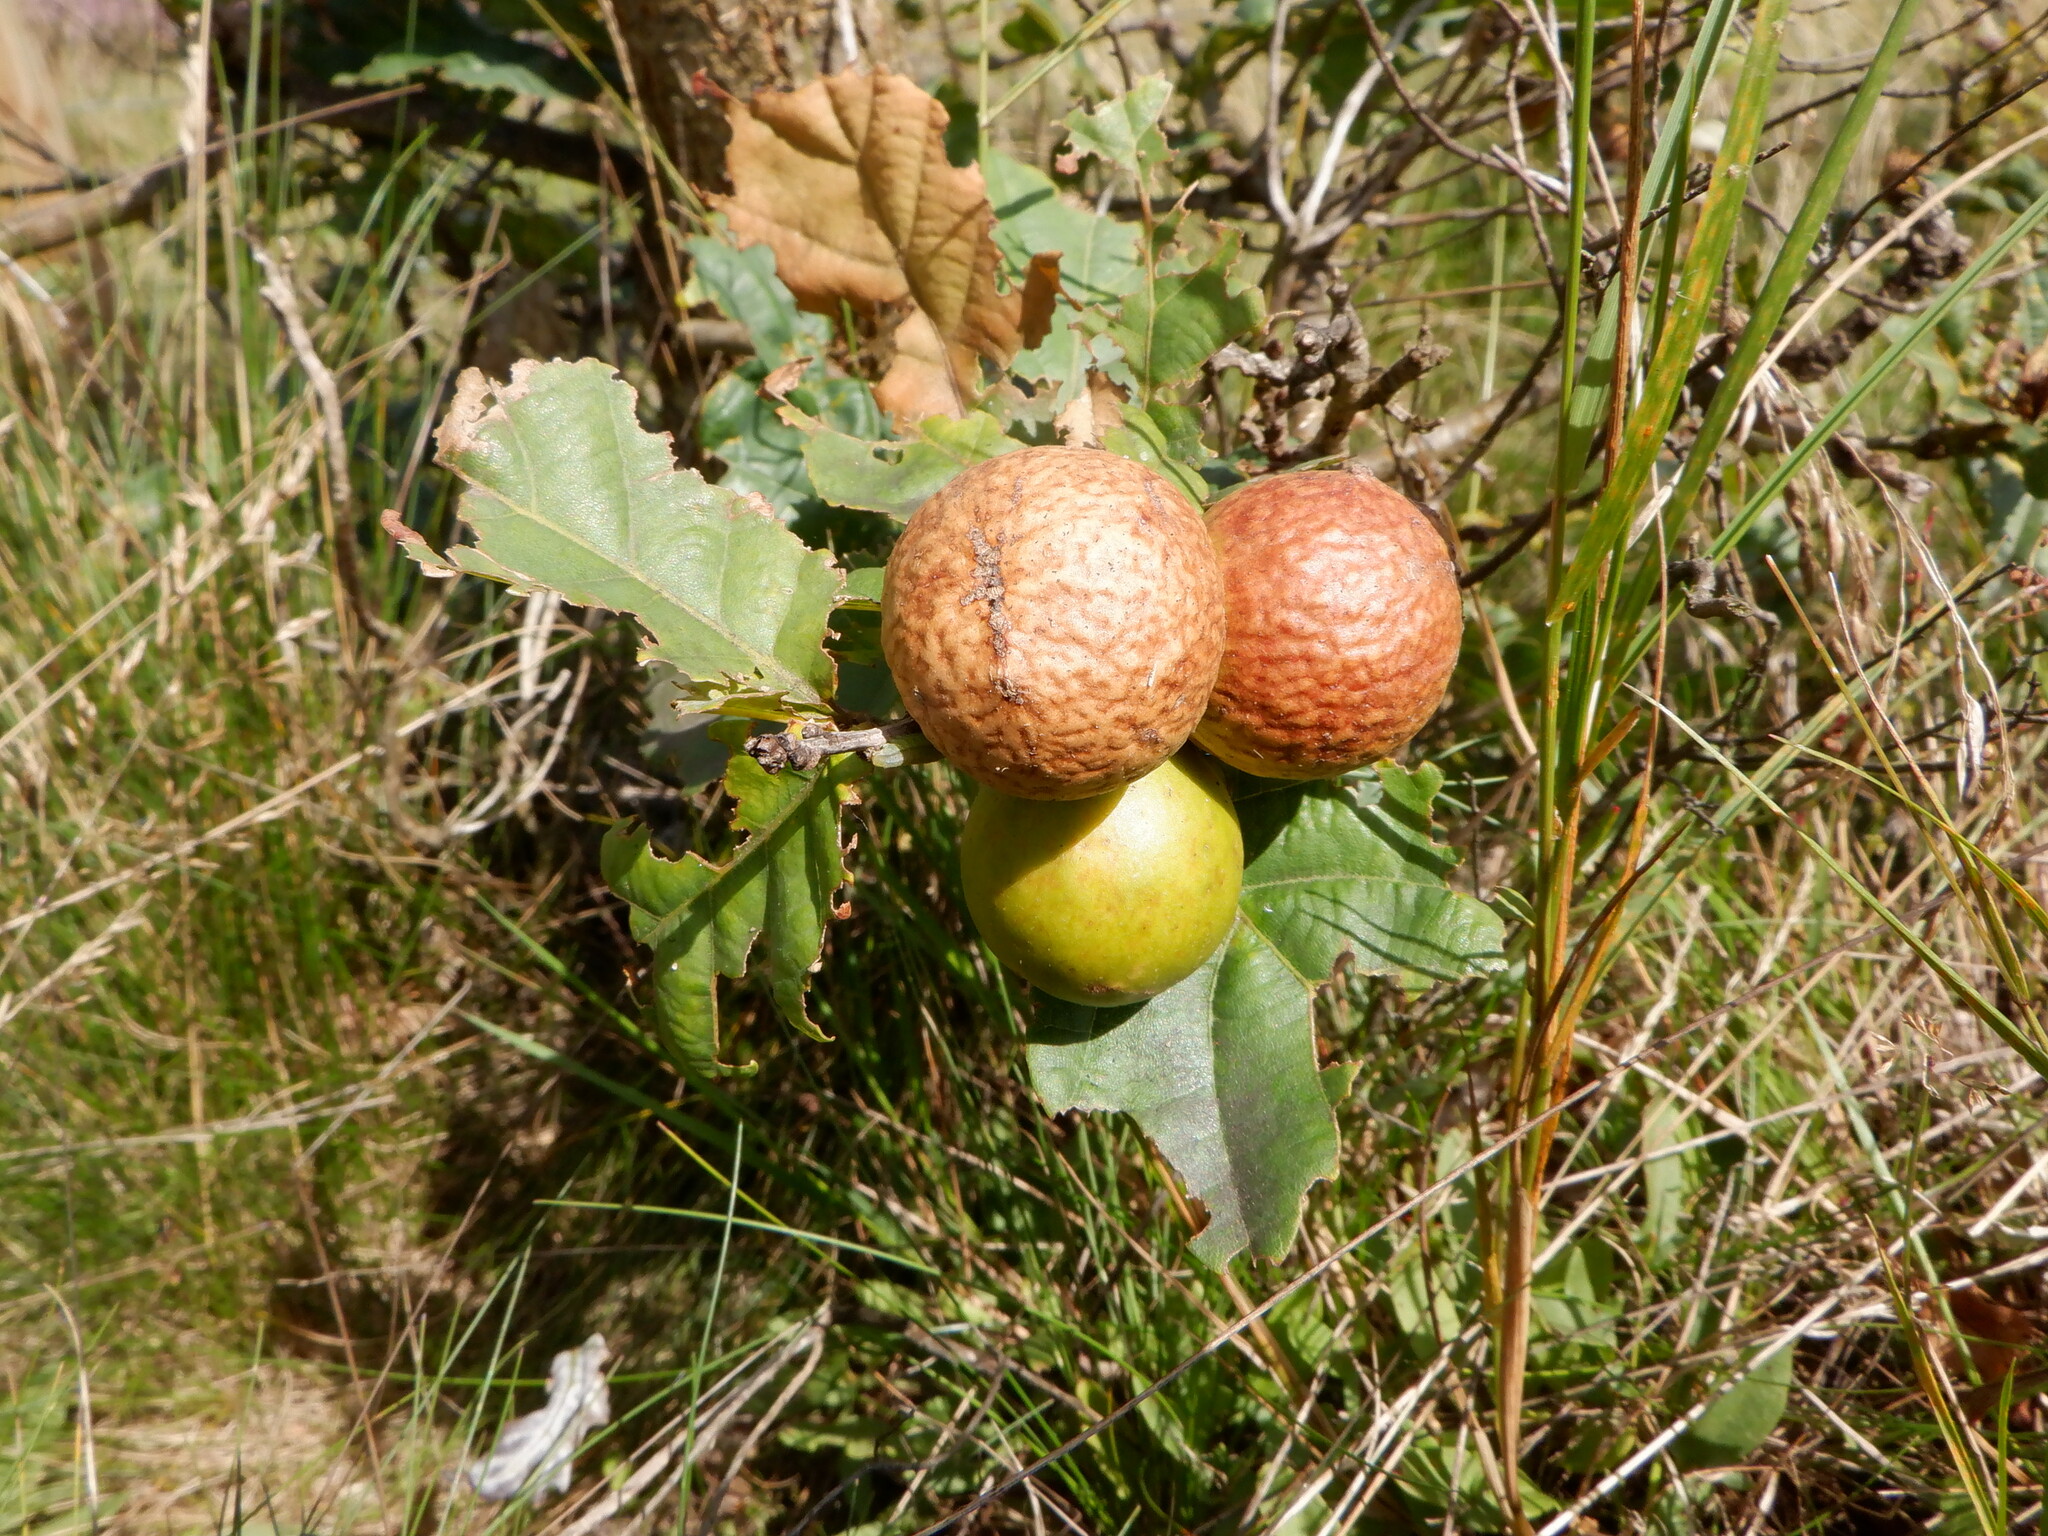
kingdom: Animalia
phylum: Arthropoda
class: Insecta
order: Hymenoptera
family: Cynipidae
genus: Andricus
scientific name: Andricus kollari
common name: Marble gall
